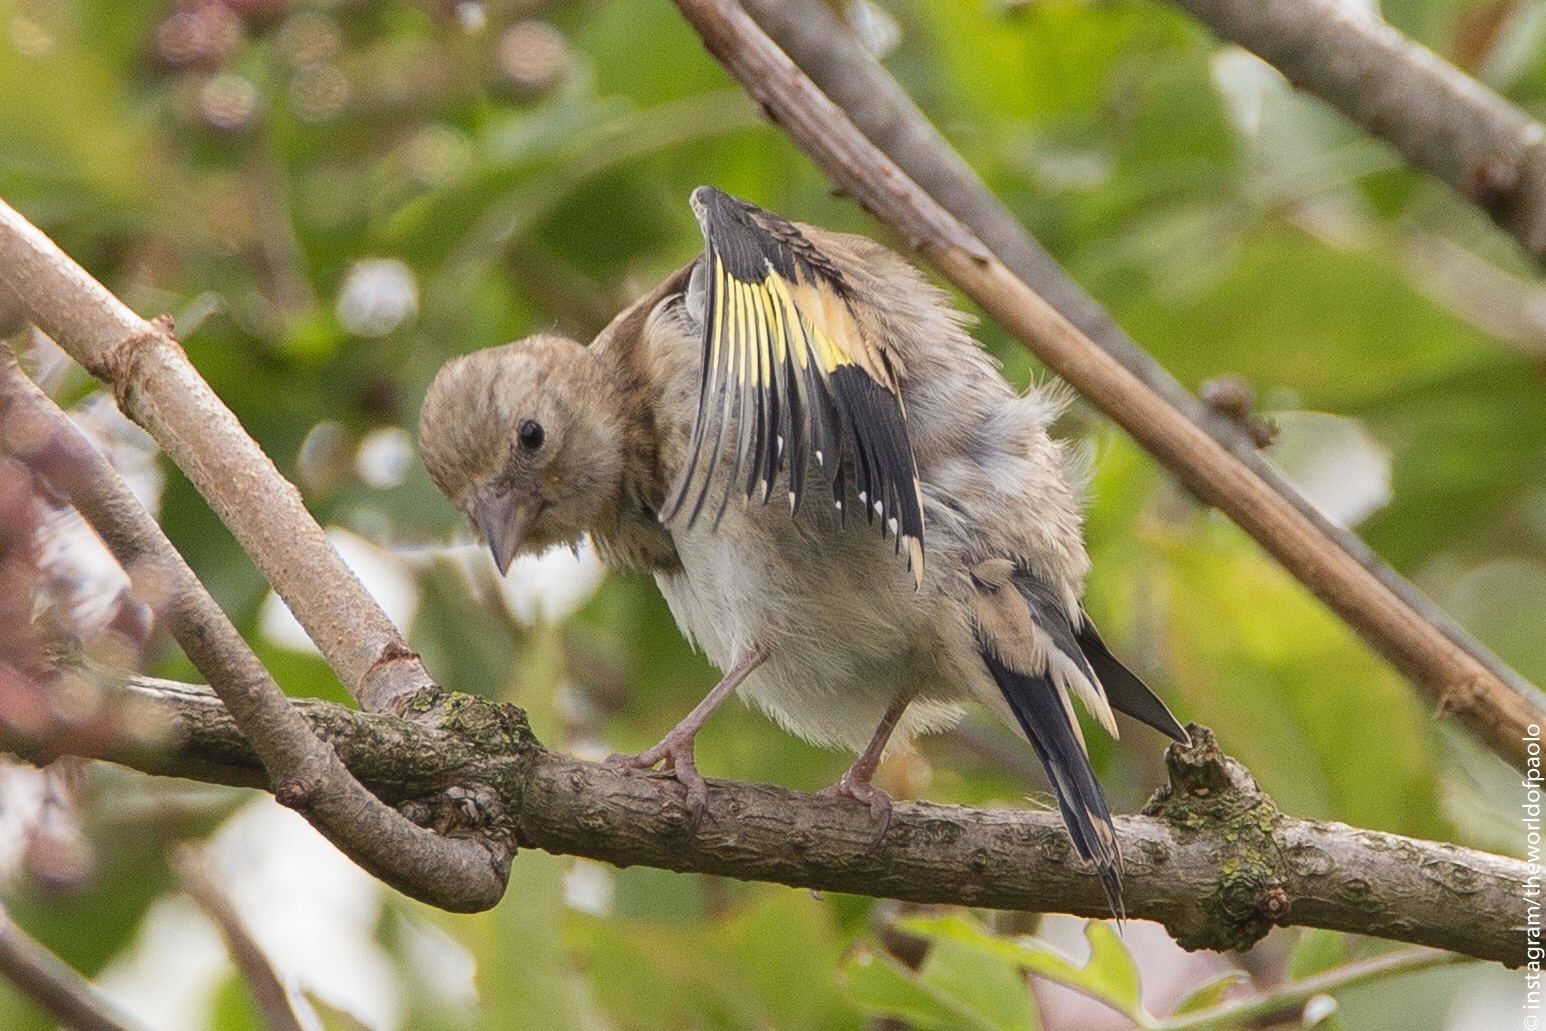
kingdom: Animalia
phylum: Chordata
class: Aves
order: Passeriformes
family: Fringillidae
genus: Carduelis
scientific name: Carduelis carduelis
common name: European goldfinch
